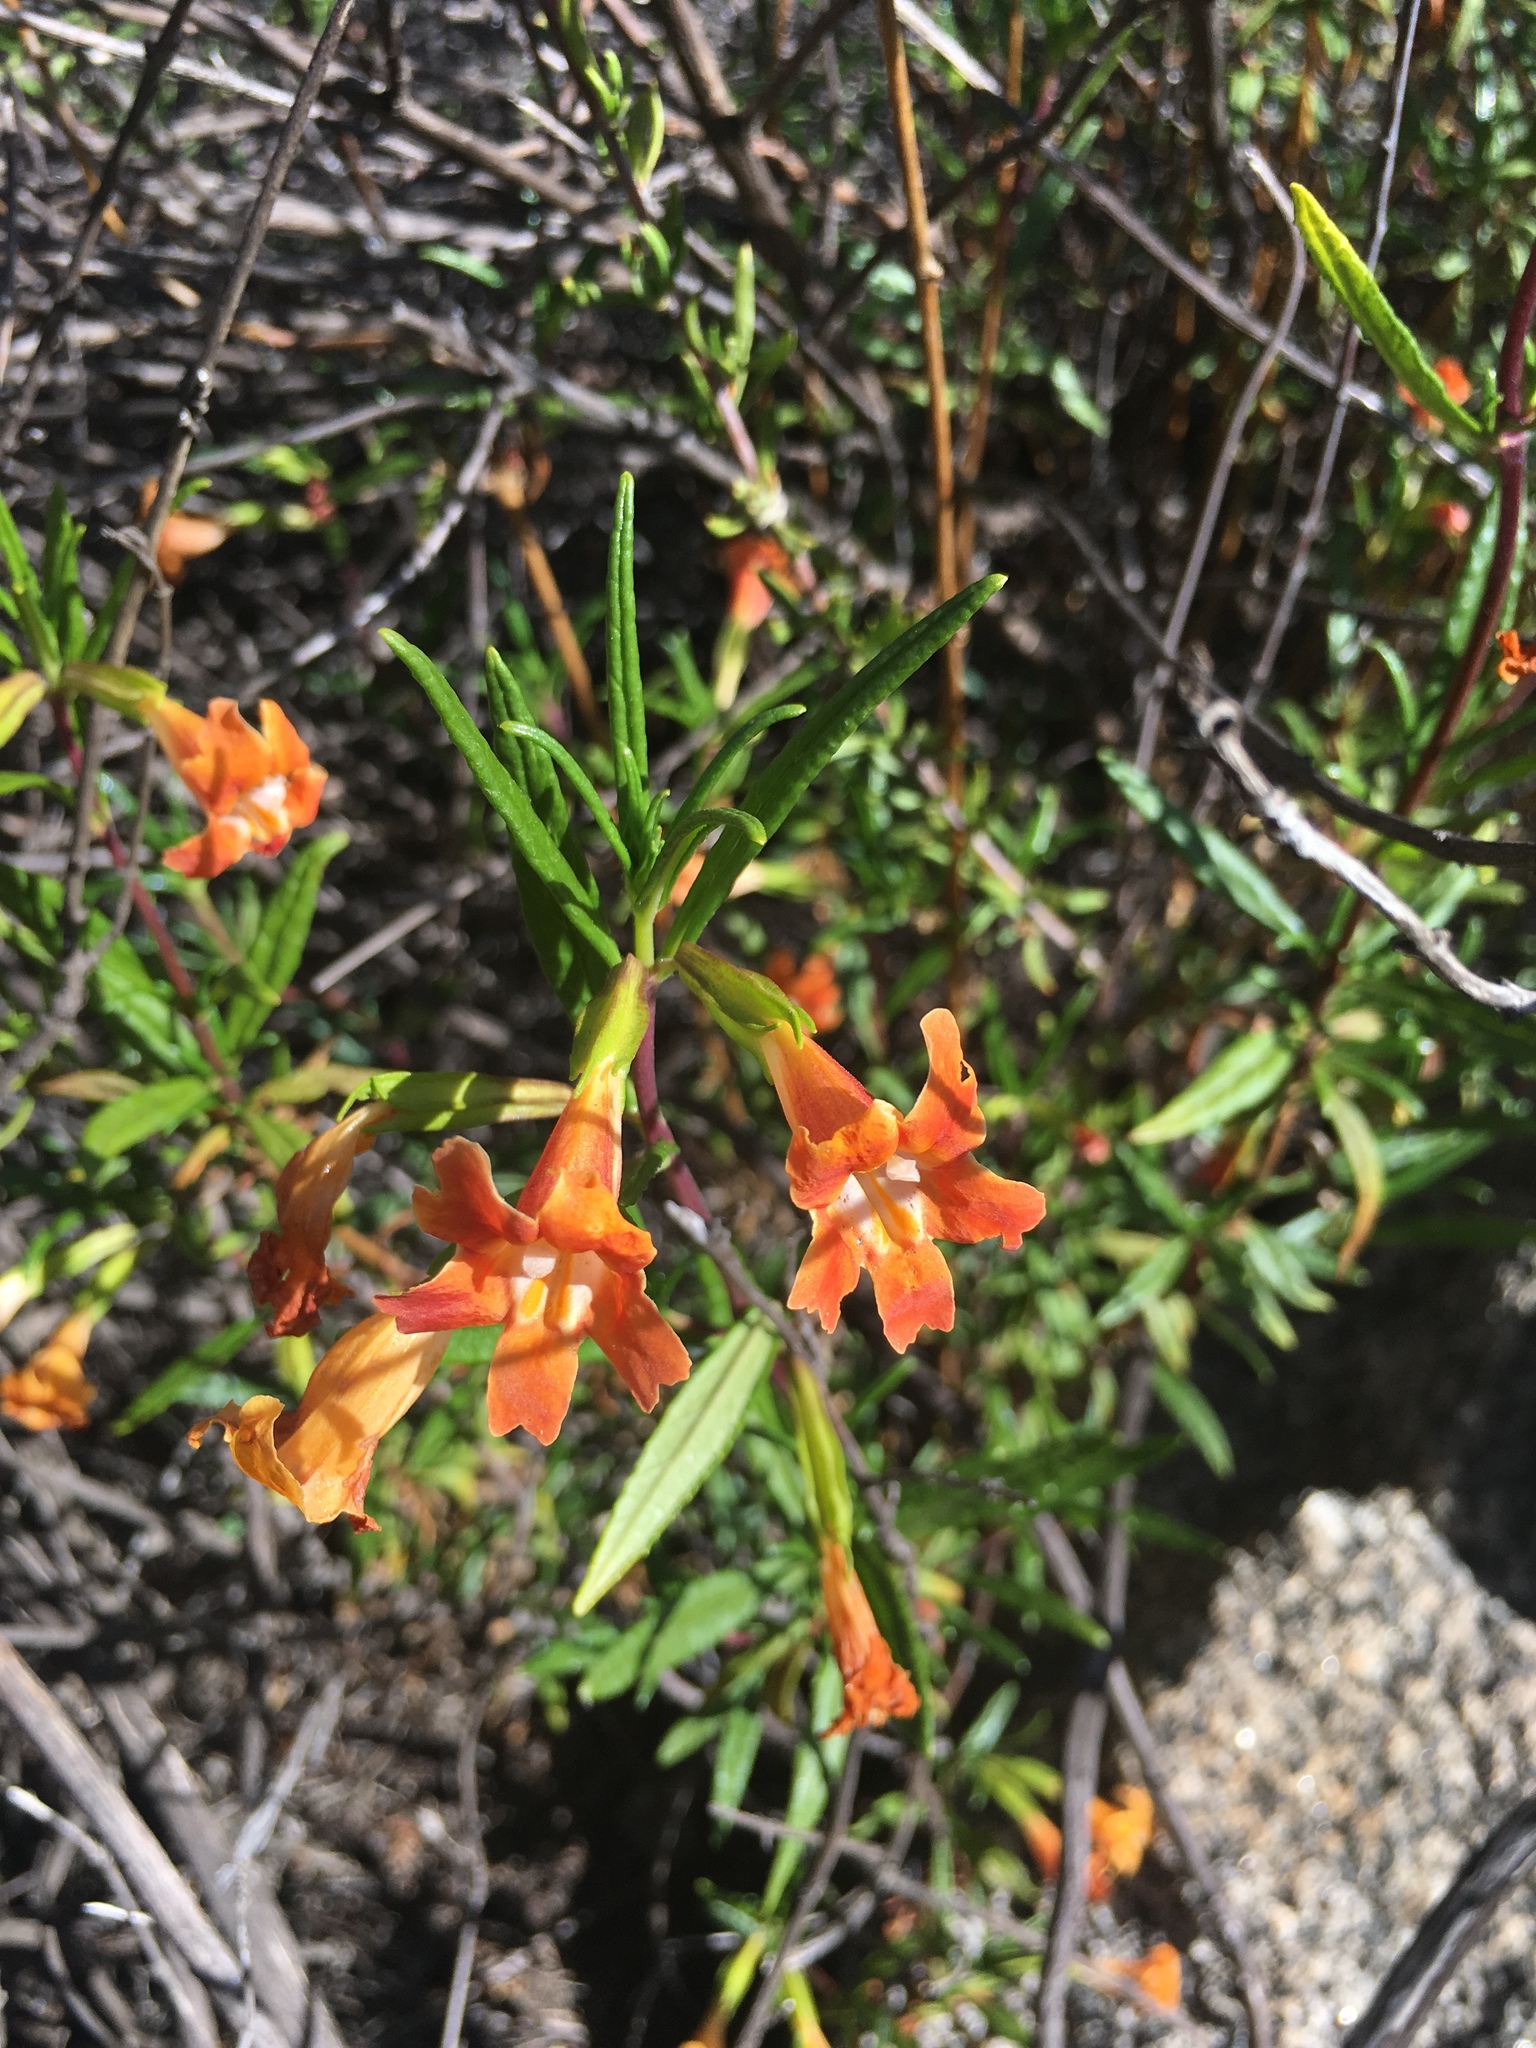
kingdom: Plantae
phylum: Tracheophyta
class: Magnoliopsida
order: Lamiales
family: Phrymaceae
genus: Diplacus
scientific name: Diplacus puniceus
